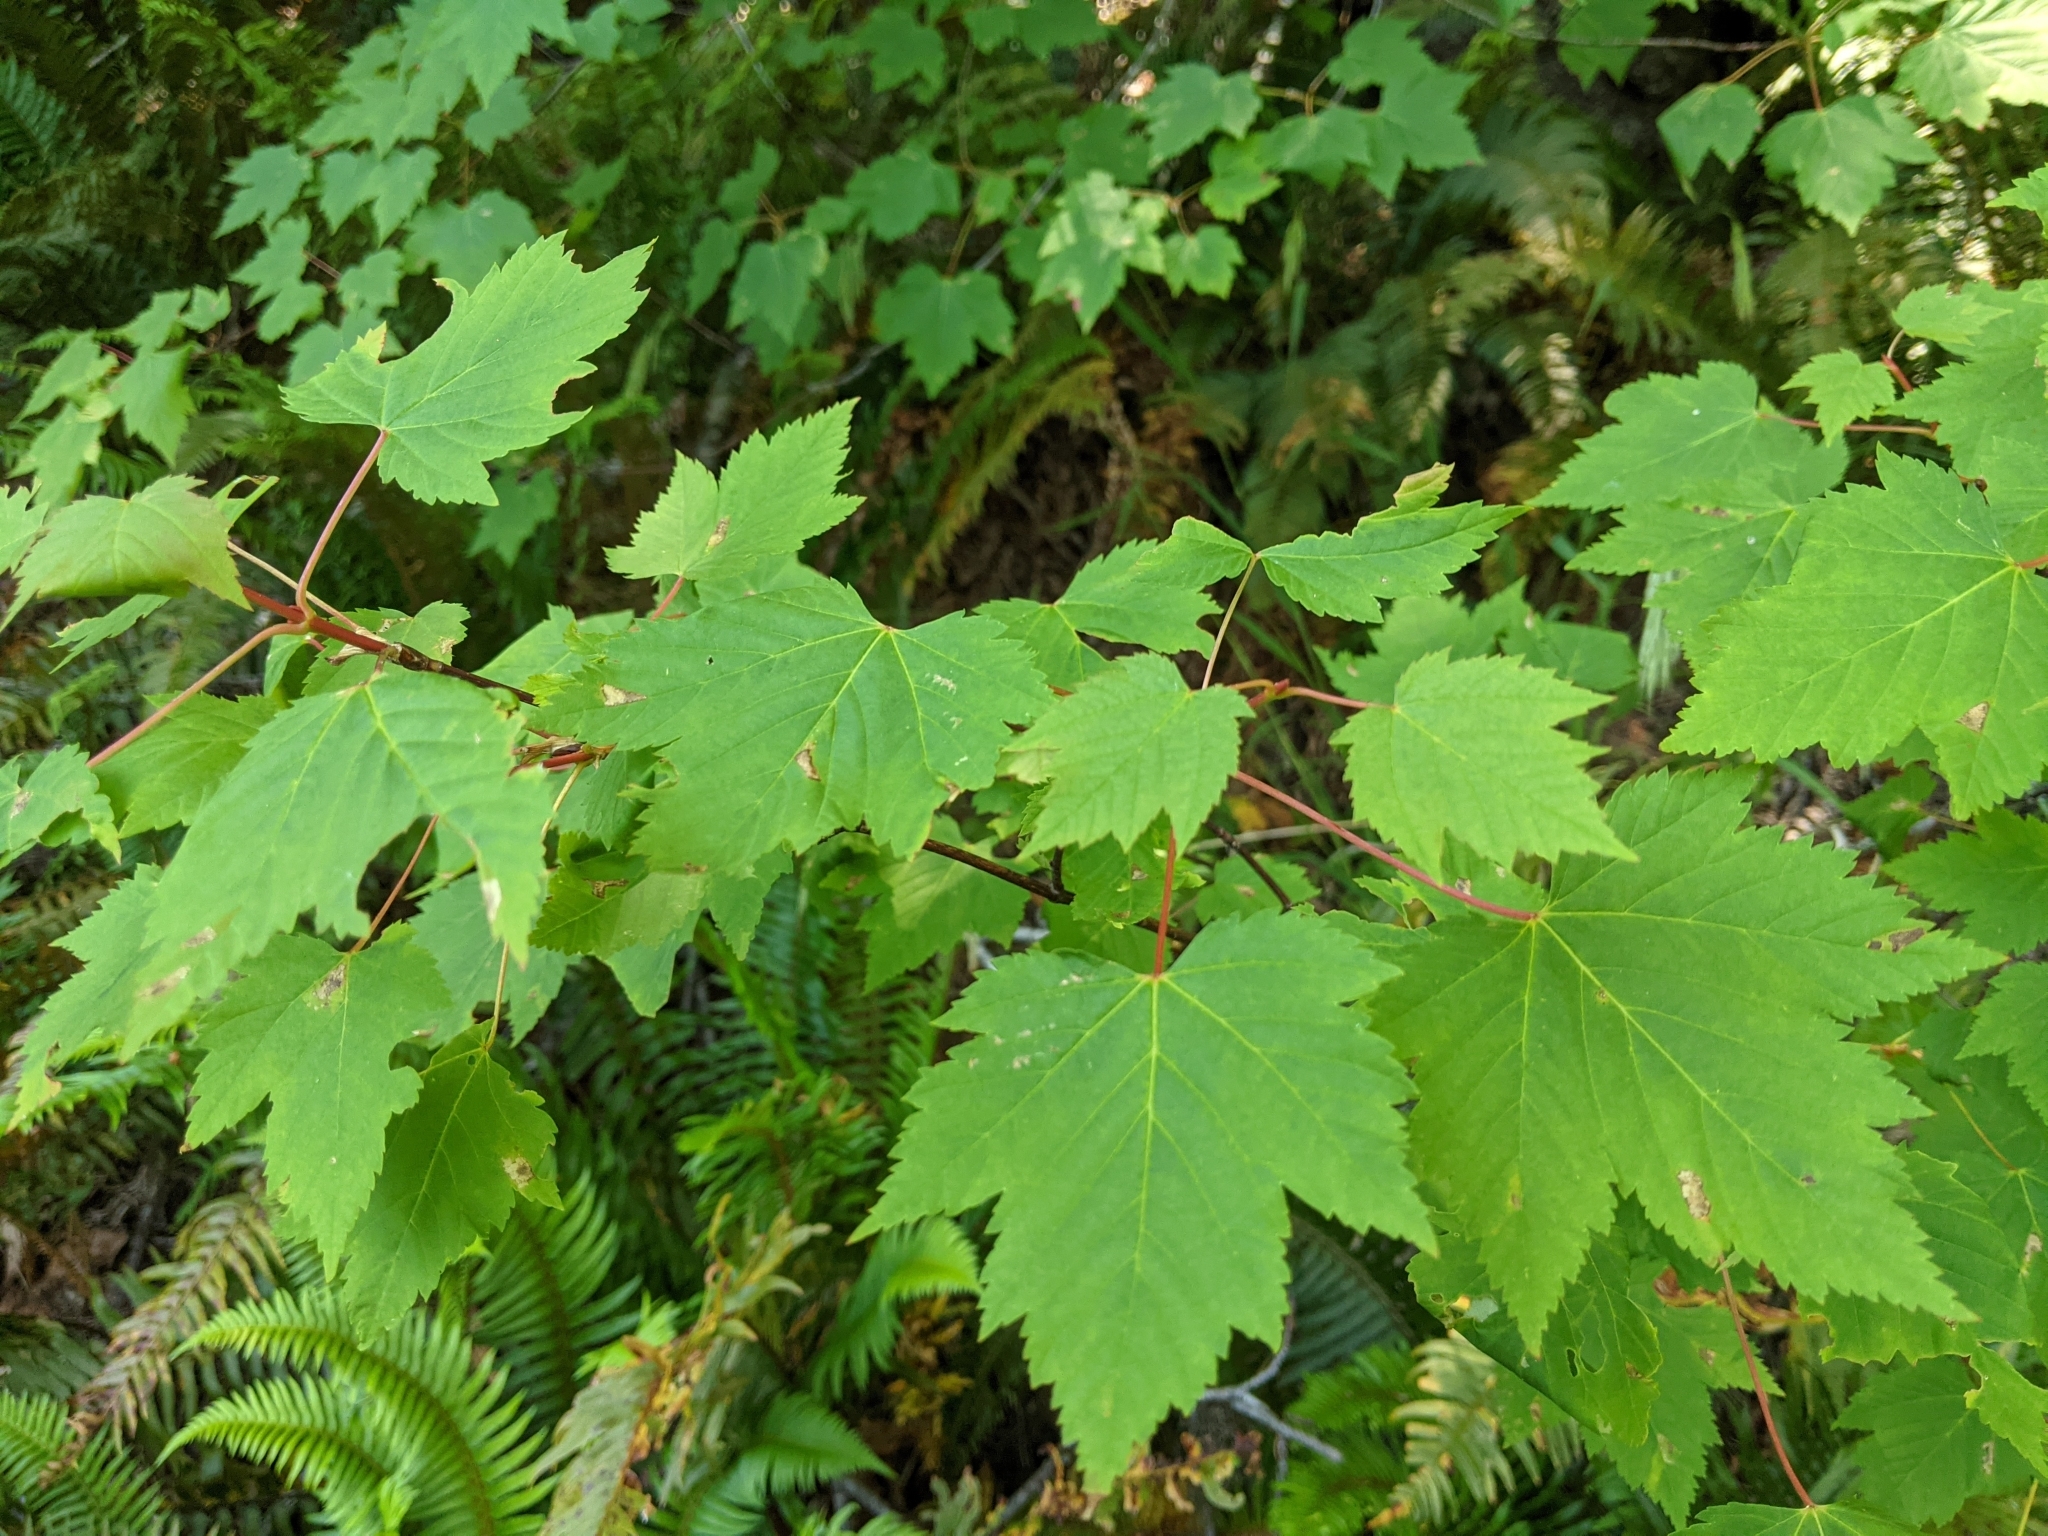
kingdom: Plantae
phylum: Tracheophyta
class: Magnoliopsida
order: Sapindales
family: Sapindaceae
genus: Acer
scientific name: Acer glabrum
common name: Rocky mountain maple
